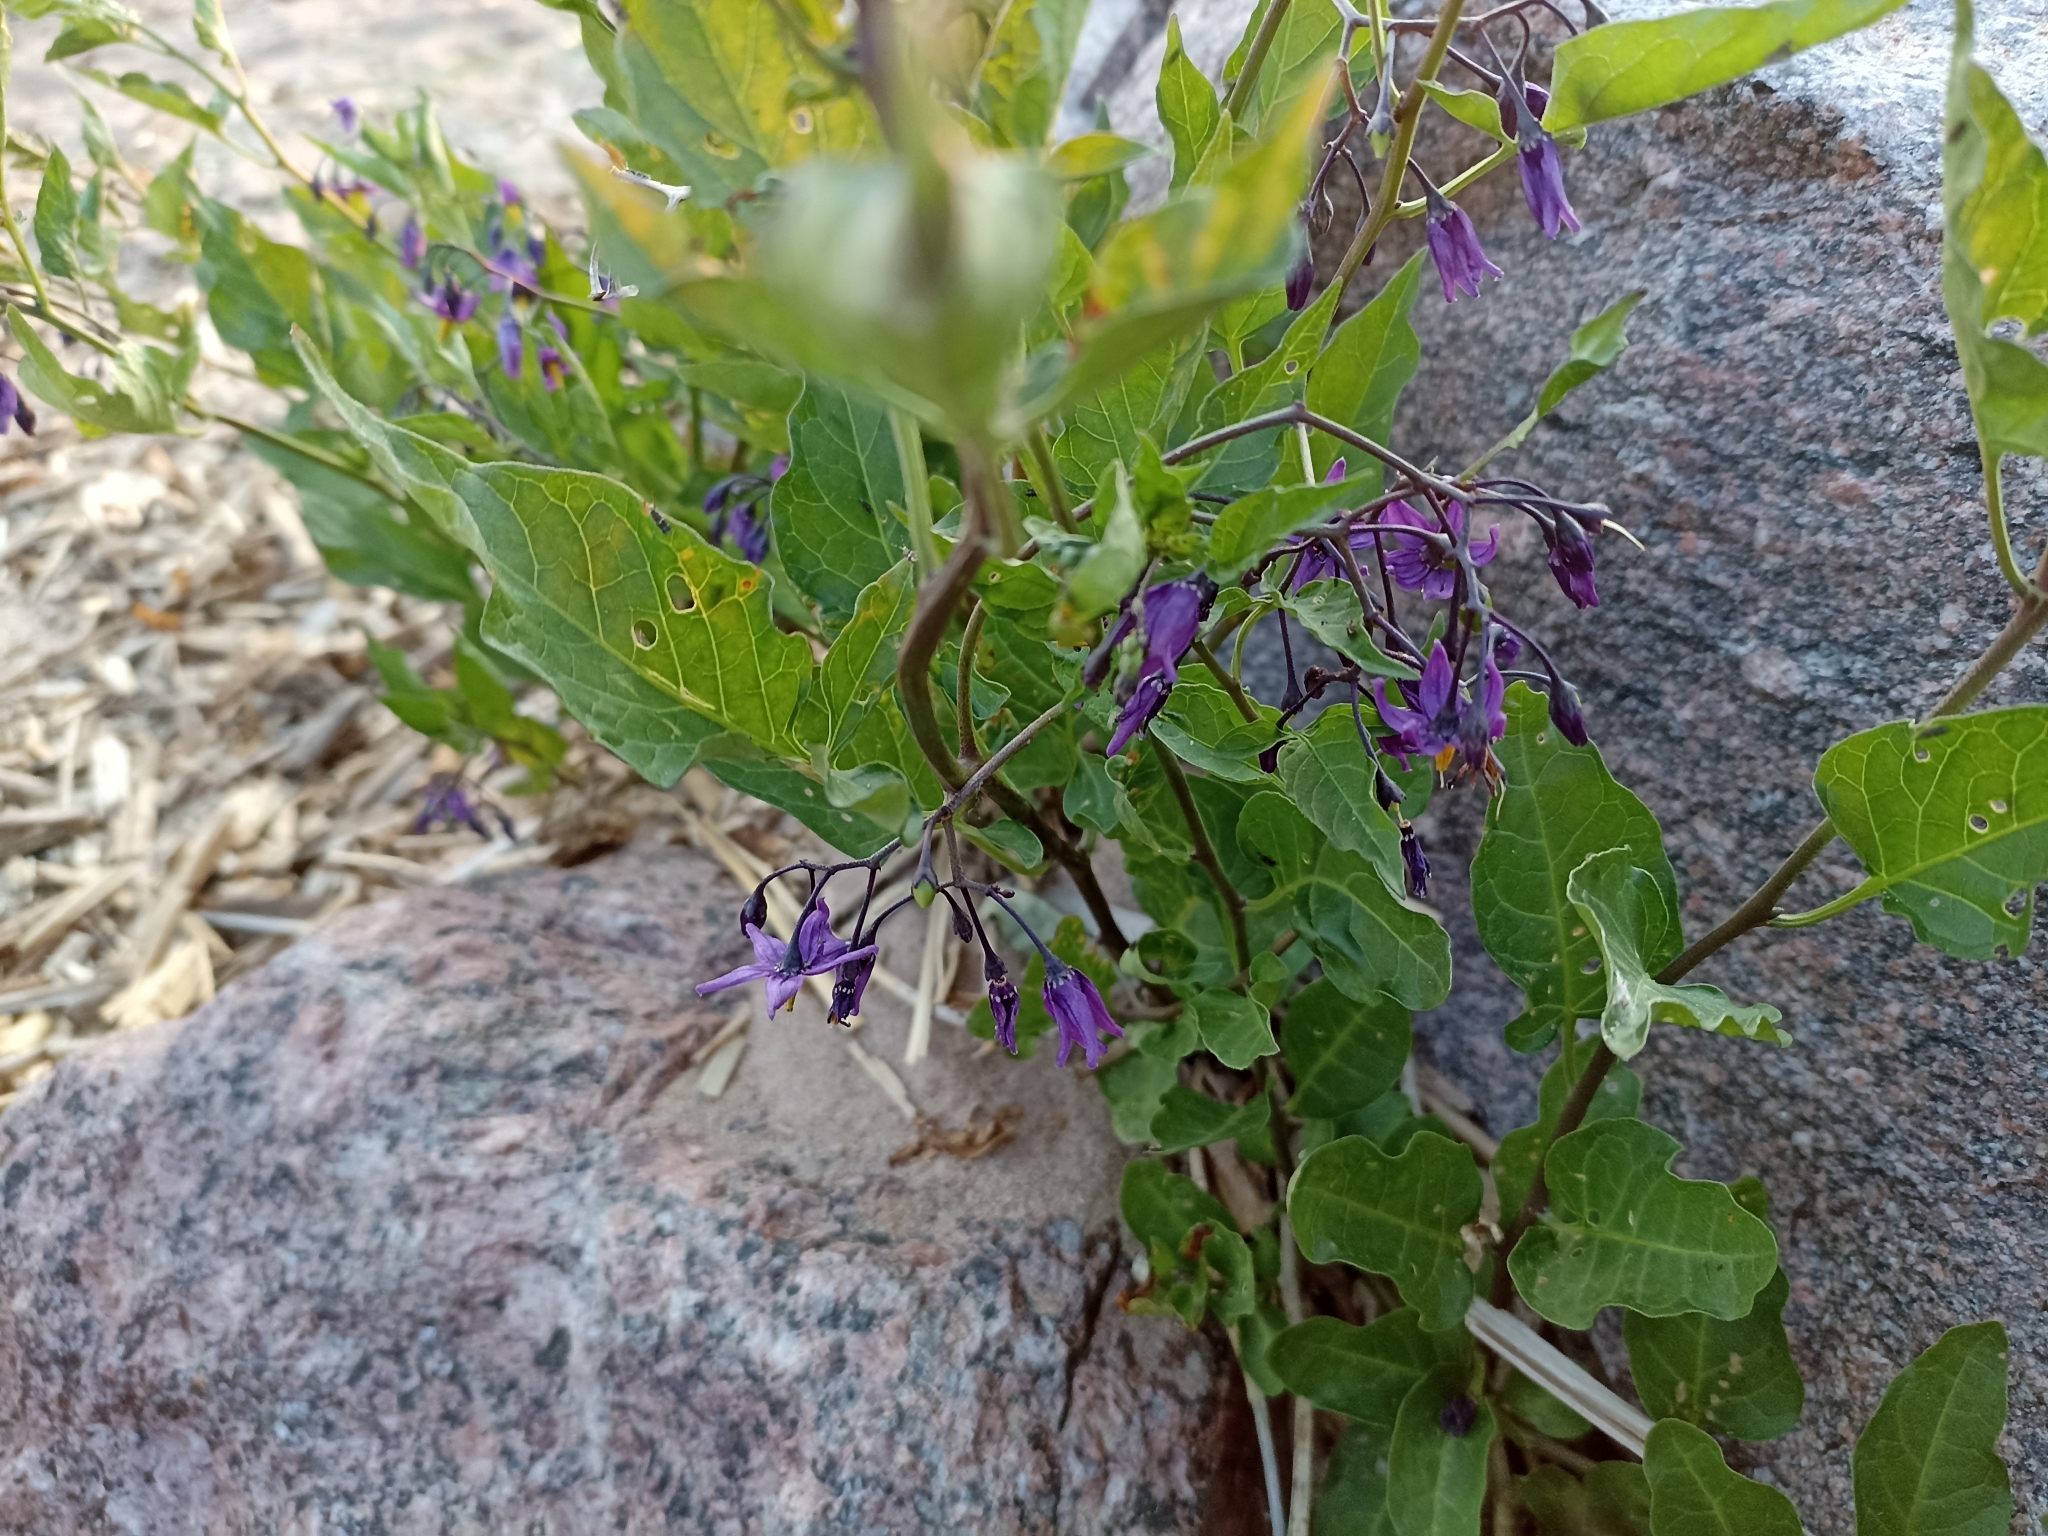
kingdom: Plantae
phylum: Tracheophyta
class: Magnoliopsida
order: Solanales
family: Solanaceae
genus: Solanum
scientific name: Solanum dulcamara
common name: Climbing nightshade
